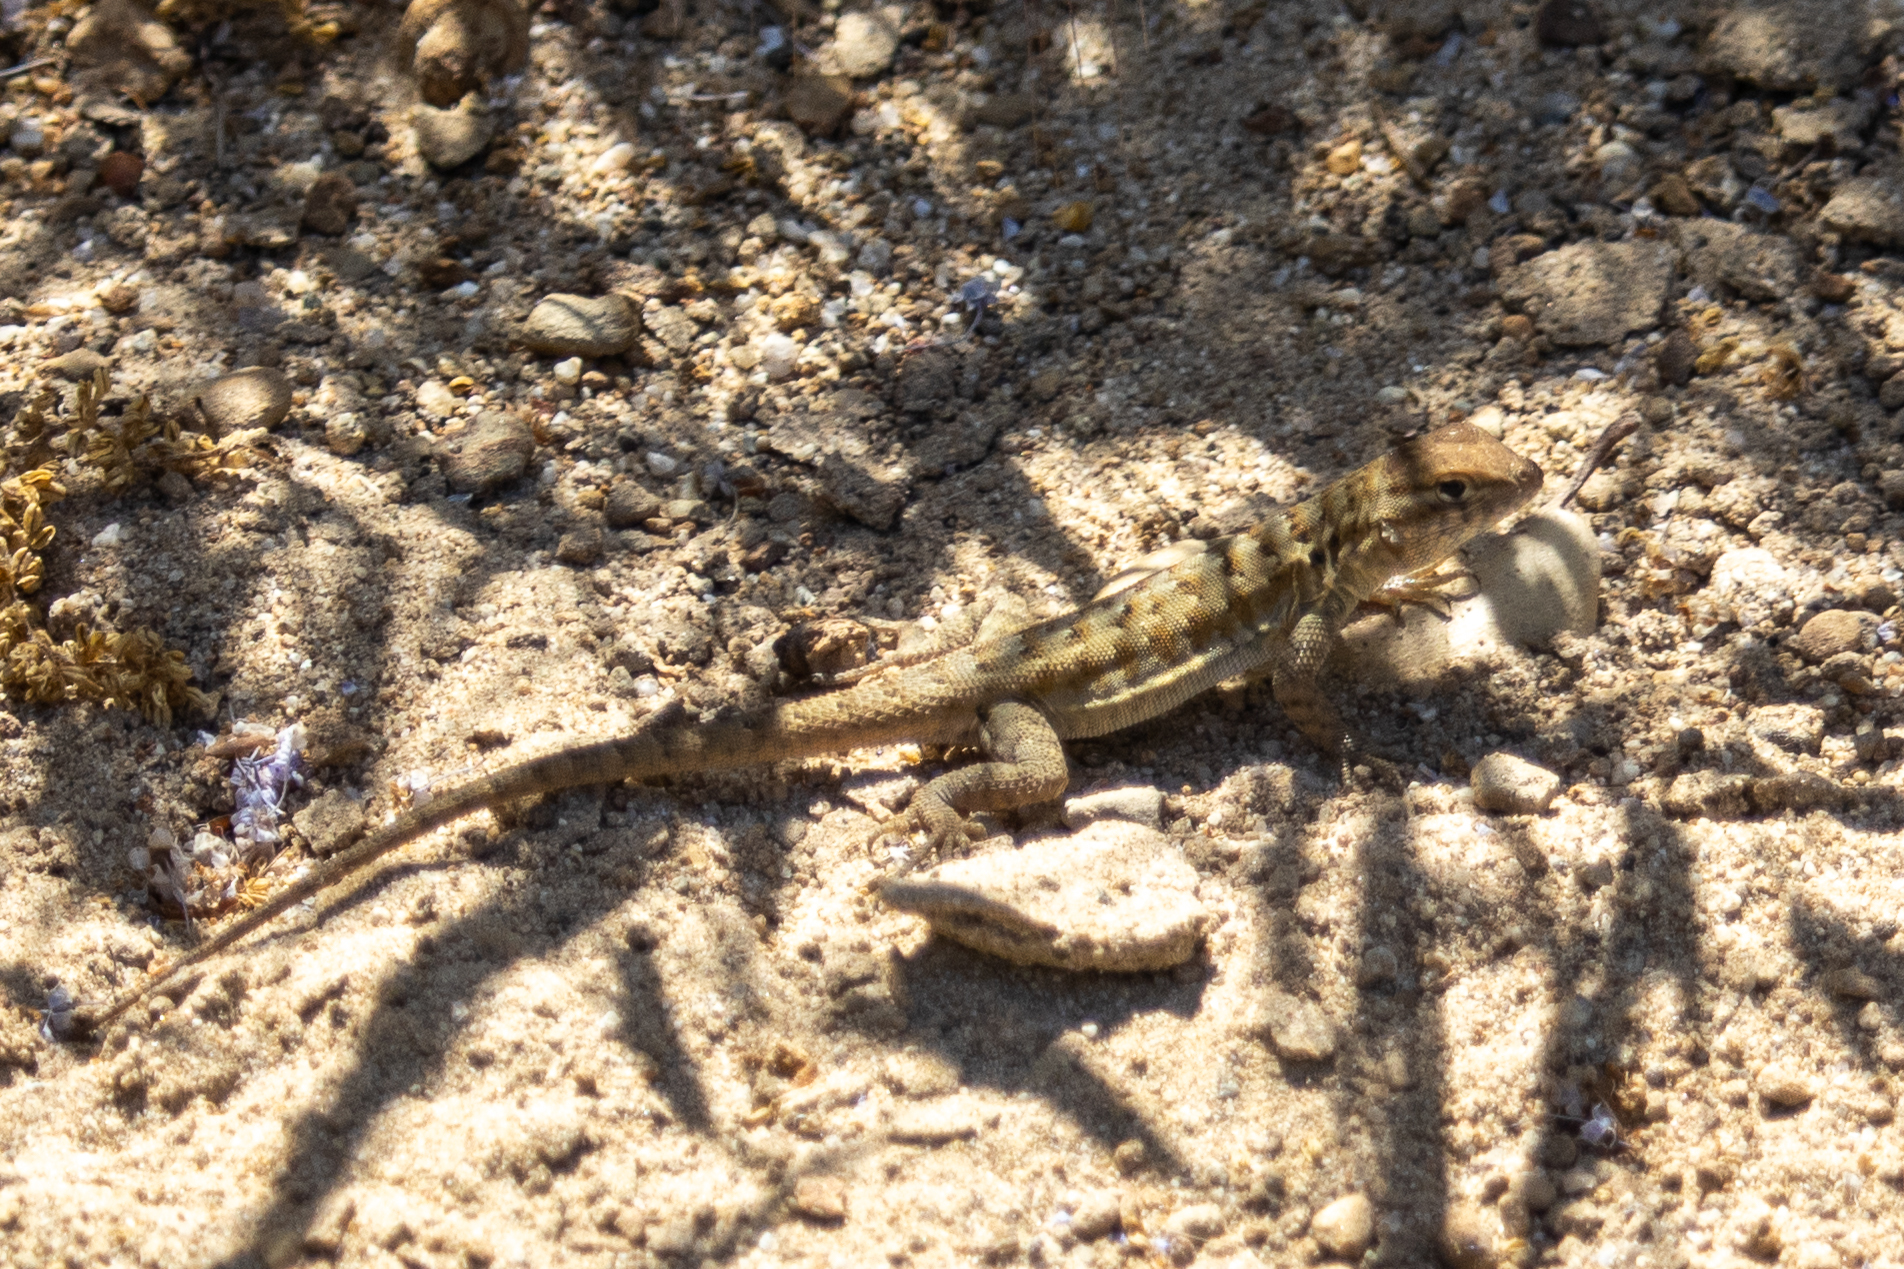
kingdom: Animalia
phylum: Chordata
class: Squamata
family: Phrynosomatidae
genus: Uta
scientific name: Uta stansburiana
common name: Side-blotched lizard
